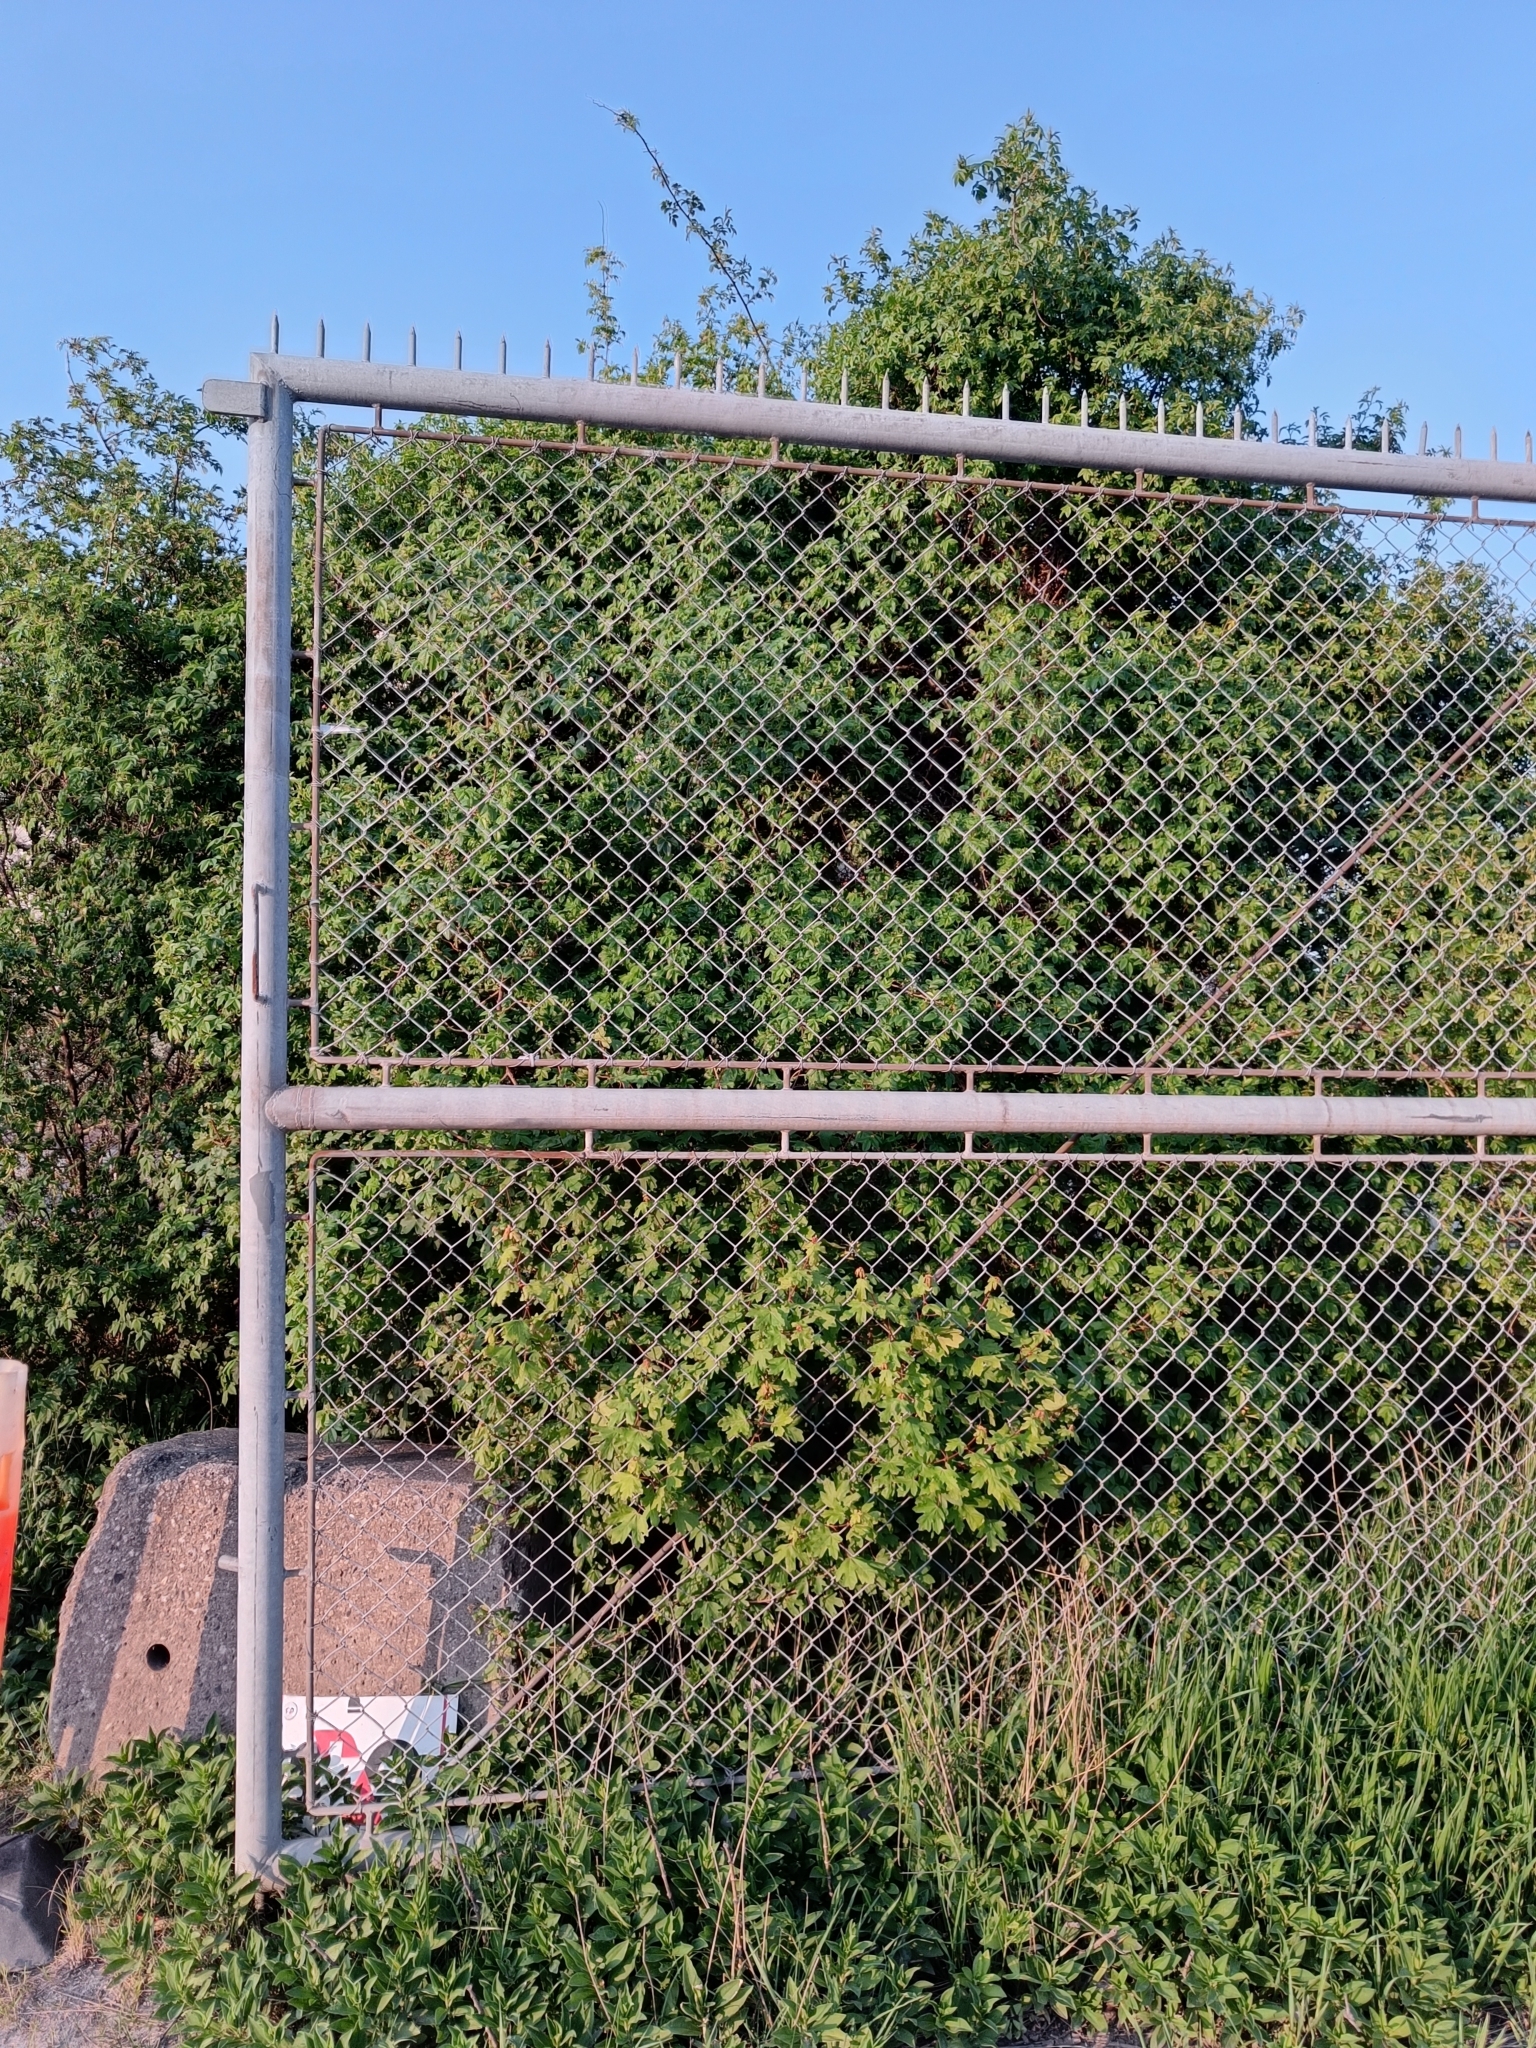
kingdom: Plantae
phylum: Tracheophyta
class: Magnoliopsida
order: Sapindales
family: Sapindaceae
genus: Acer
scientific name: Acer campestre
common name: Field maple
